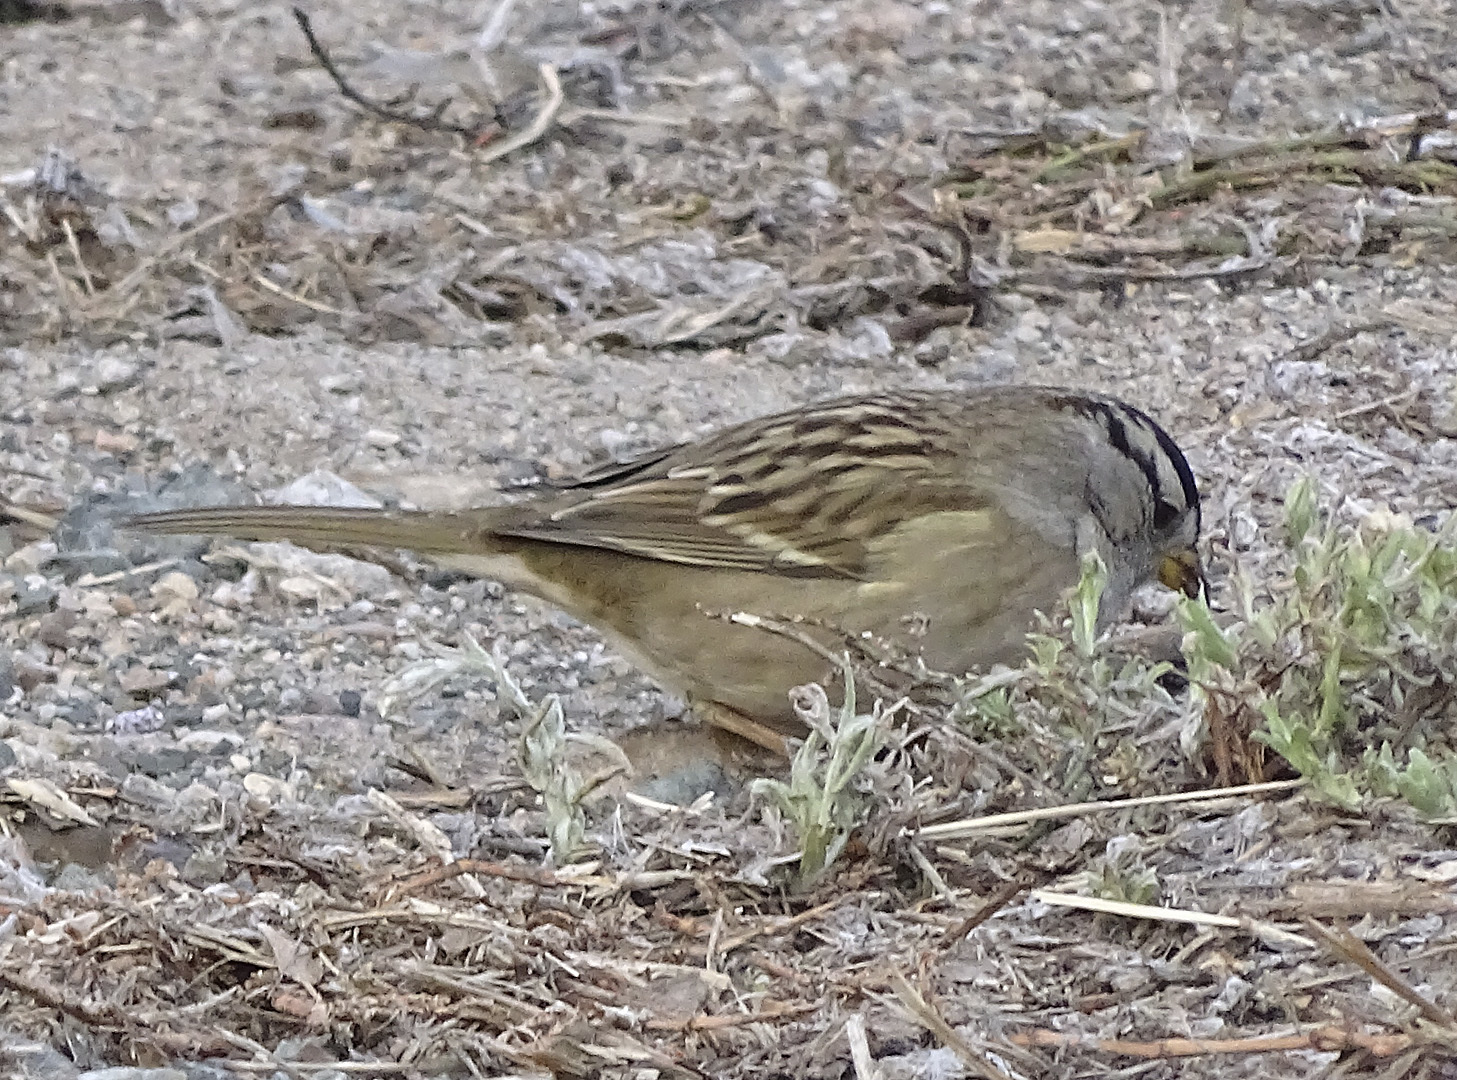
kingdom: Animalia
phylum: Chordata
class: Aves
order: Passeriformes
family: Passerellidae
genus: Zonotrichia
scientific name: Zonotrichia leucophrys
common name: White-crowned sparrow
